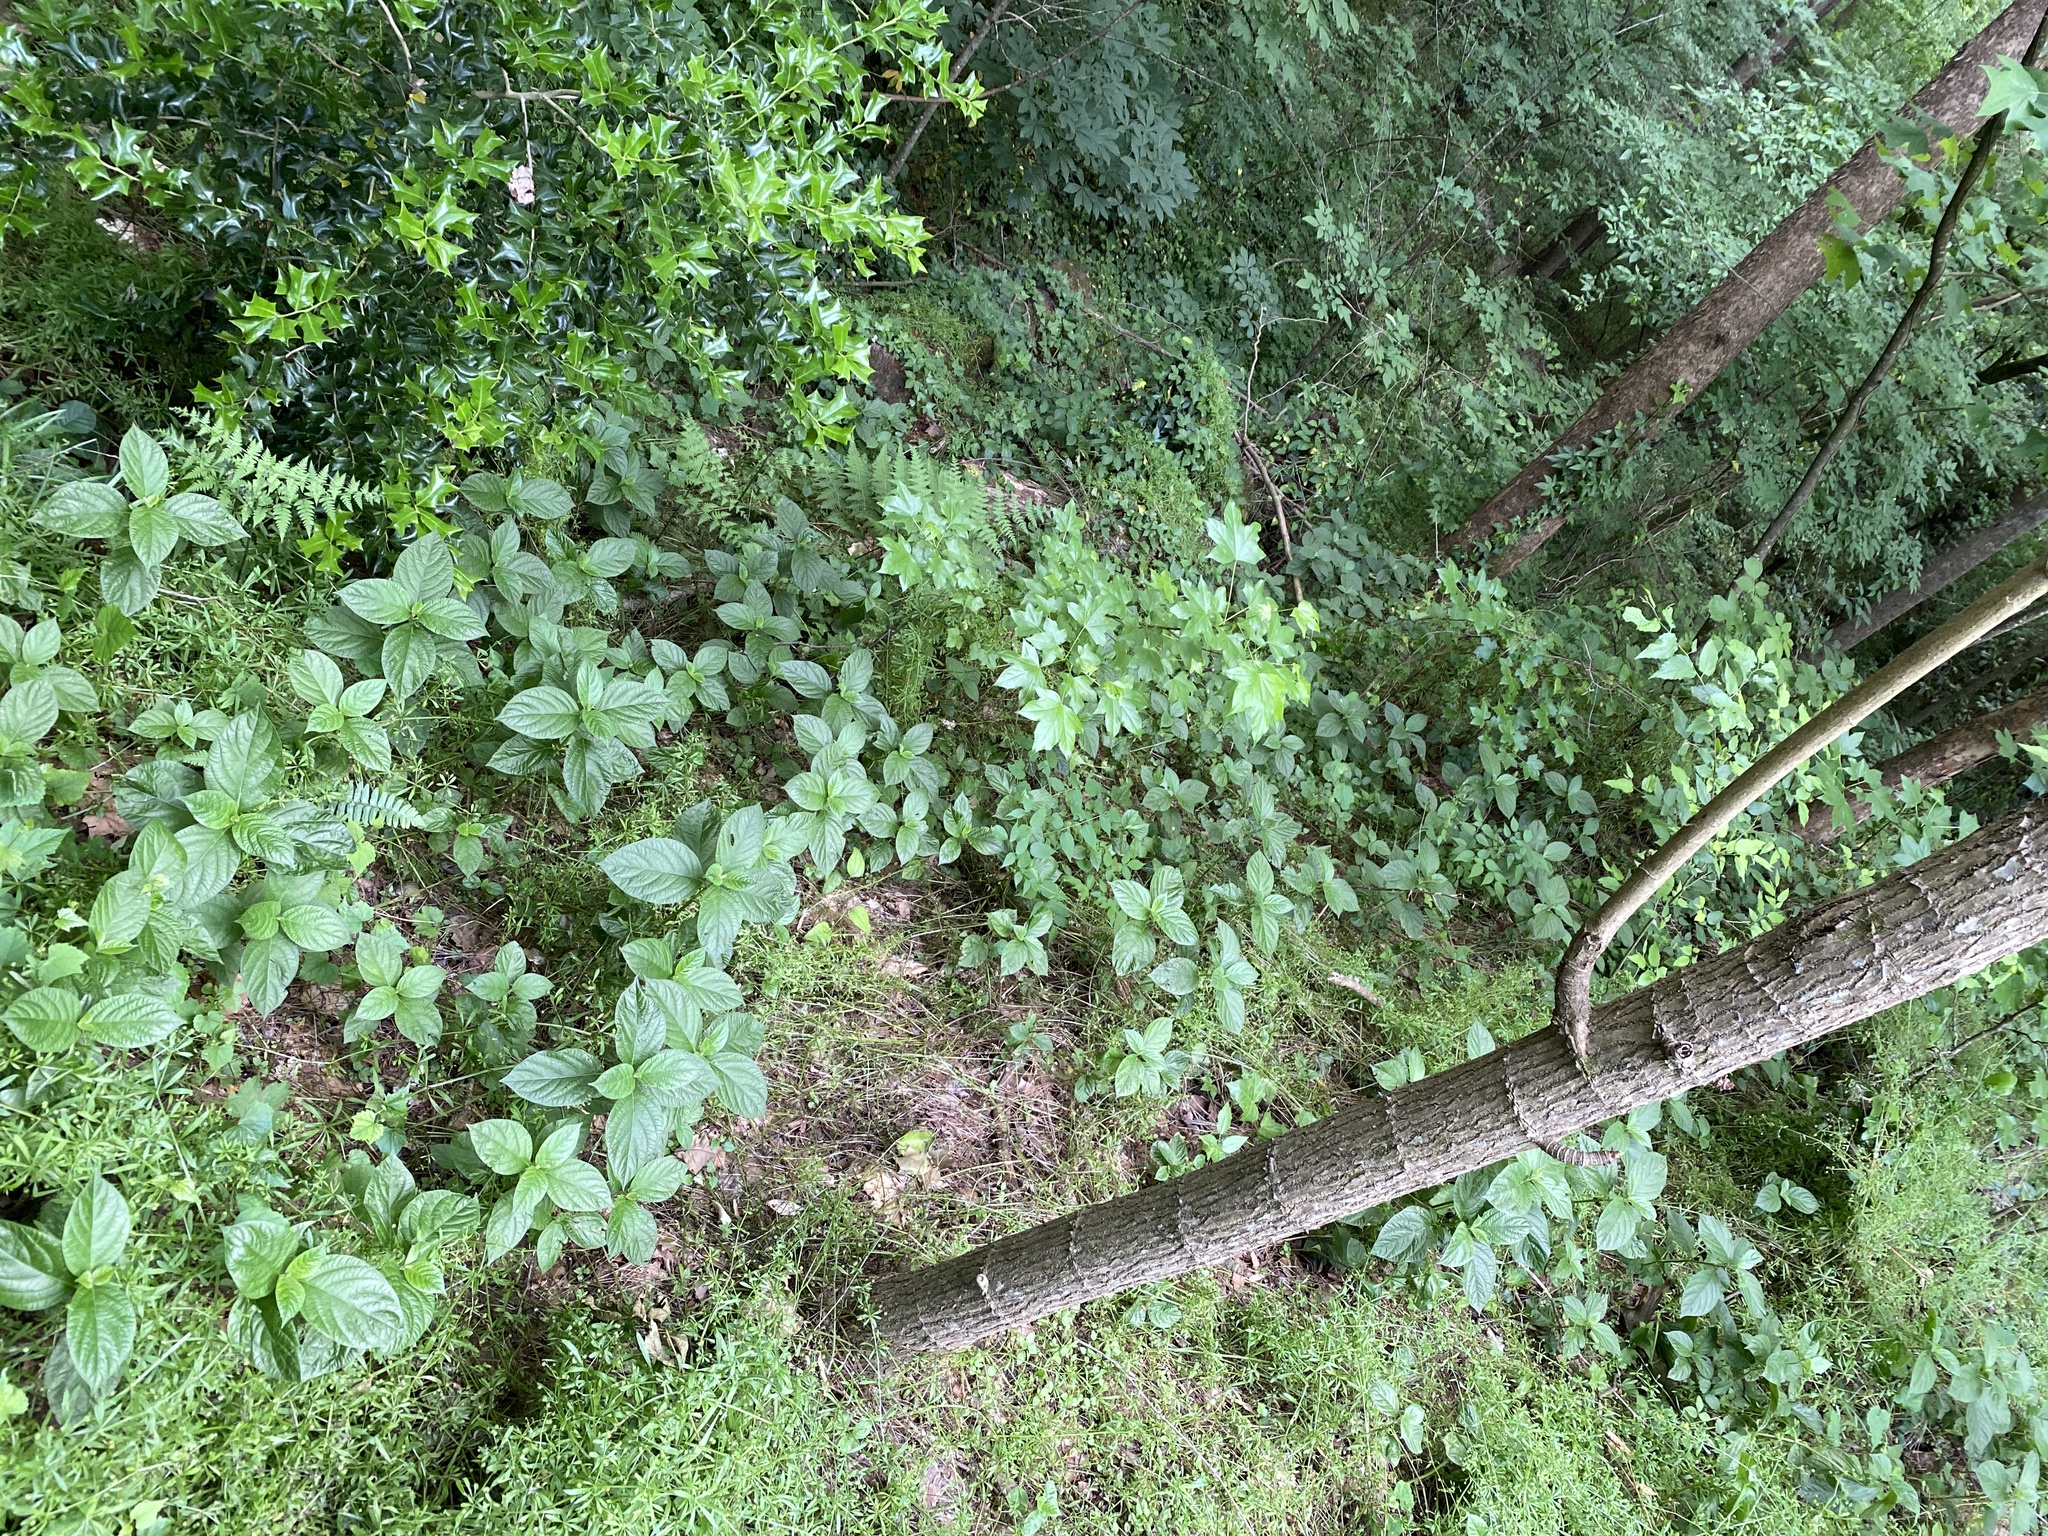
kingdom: Plantae
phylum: Tracheophyta
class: Magnoliopsida
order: Caryophyllales
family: Amaranthaceae
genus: Achyranthes
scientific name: Achyranthes bidentata
